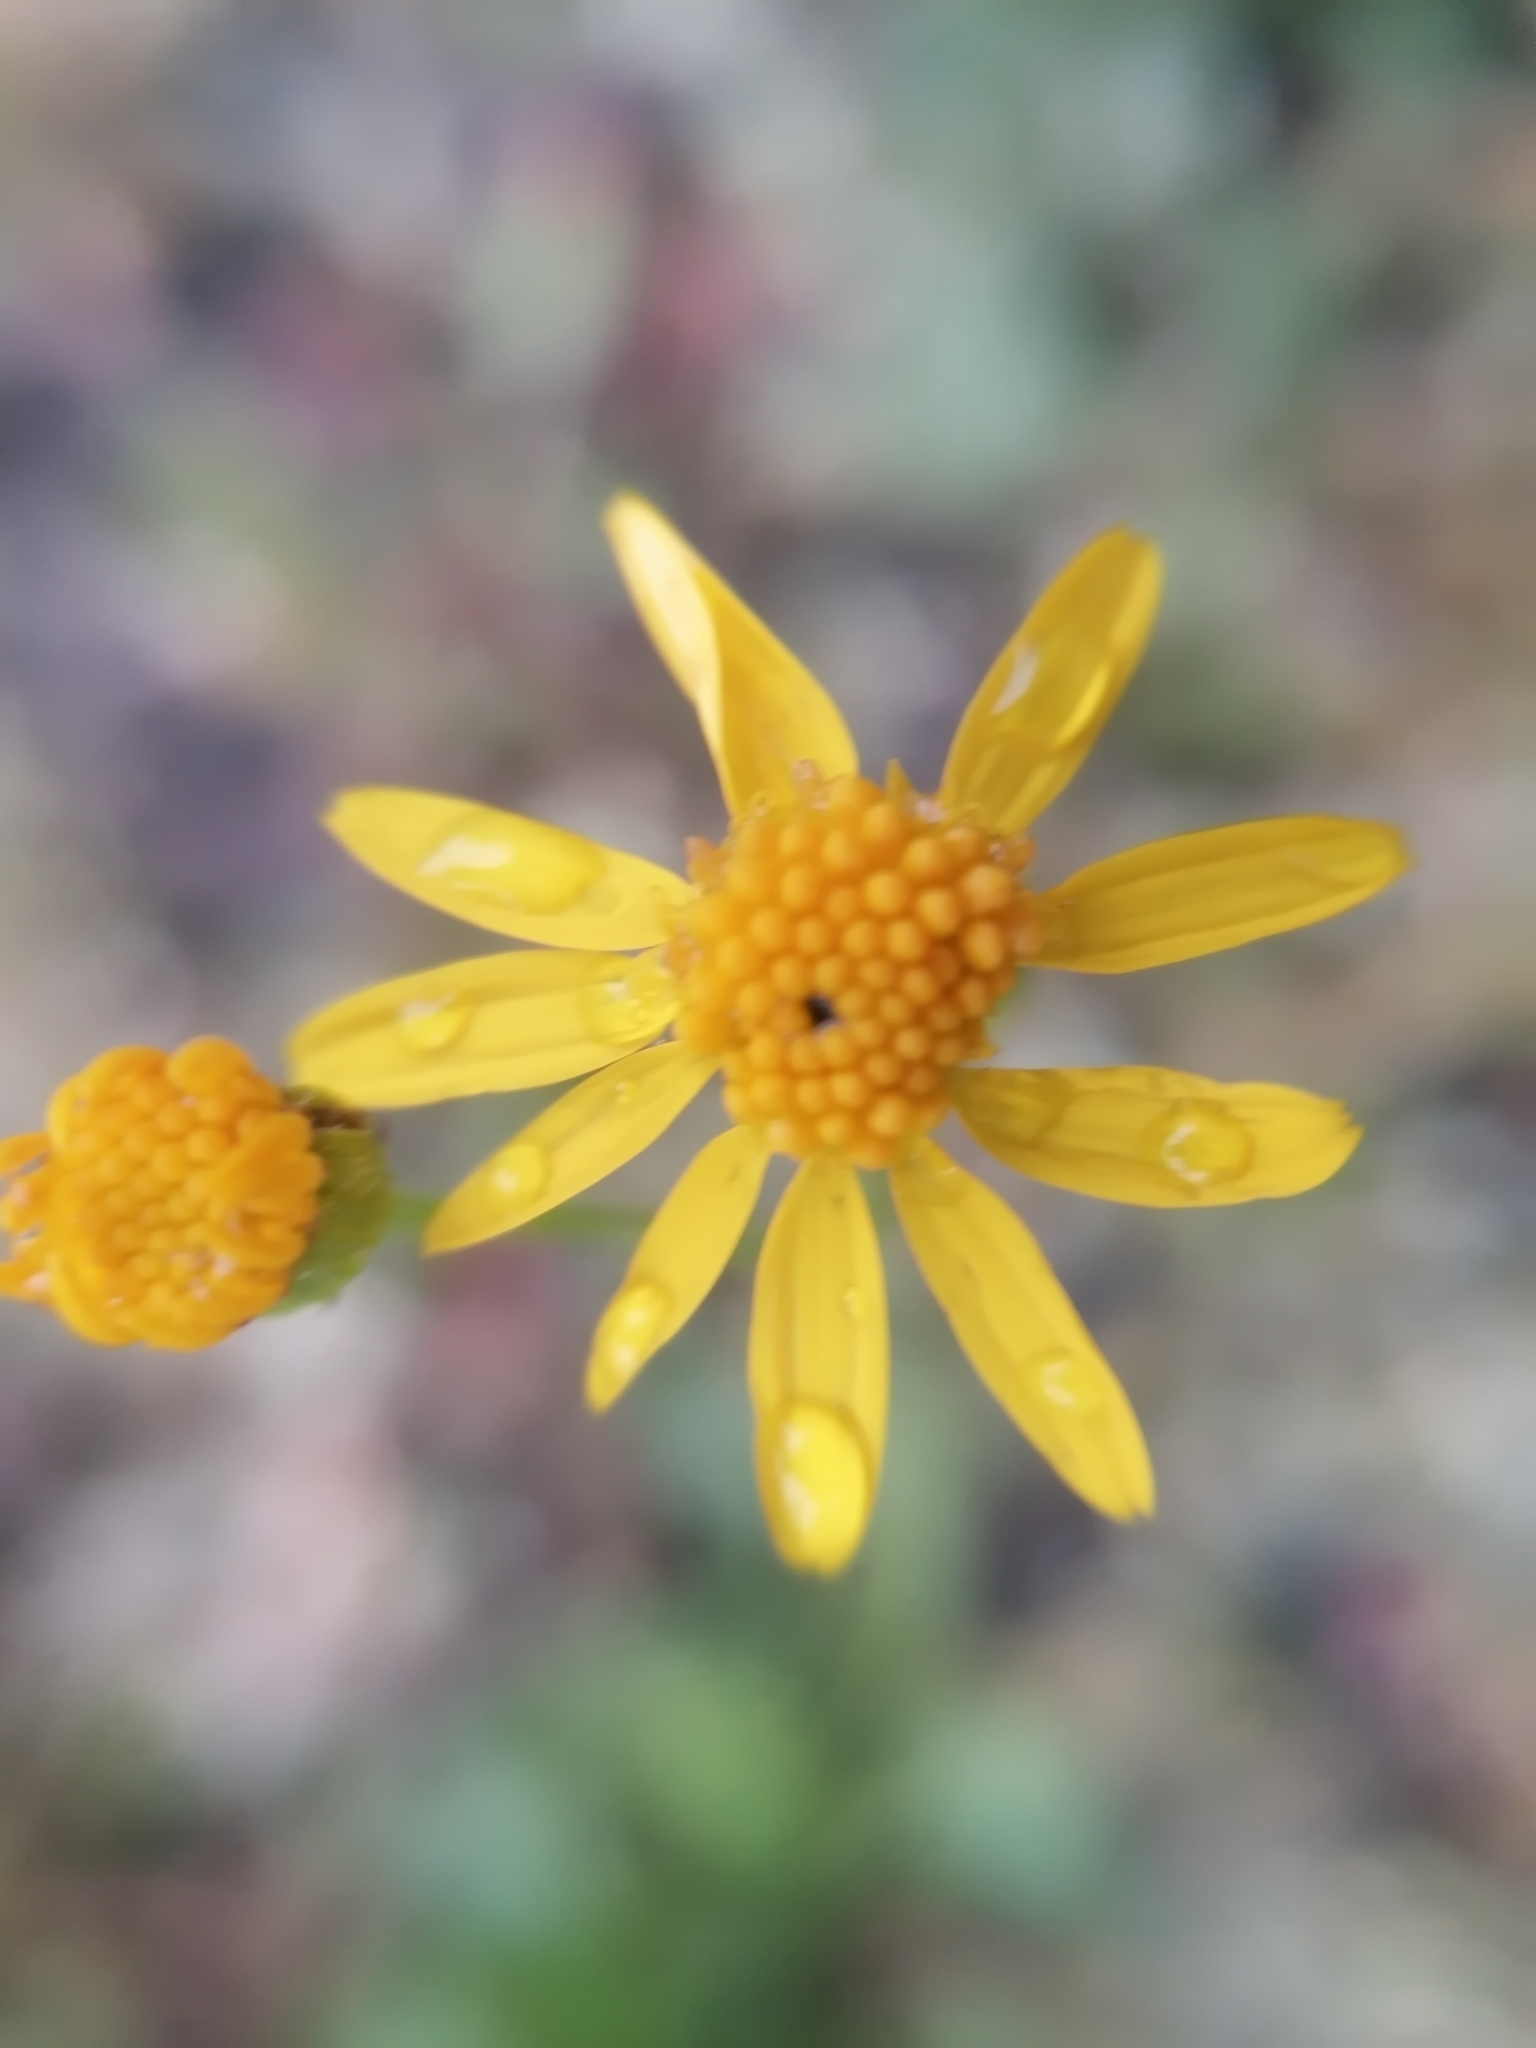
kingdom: Plantae
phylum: Tracheophyta
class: Magnoliopsida
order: Asterales
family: Asteraceae
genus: Packera
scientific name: Packera paupercula
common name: Balsam groundsel
